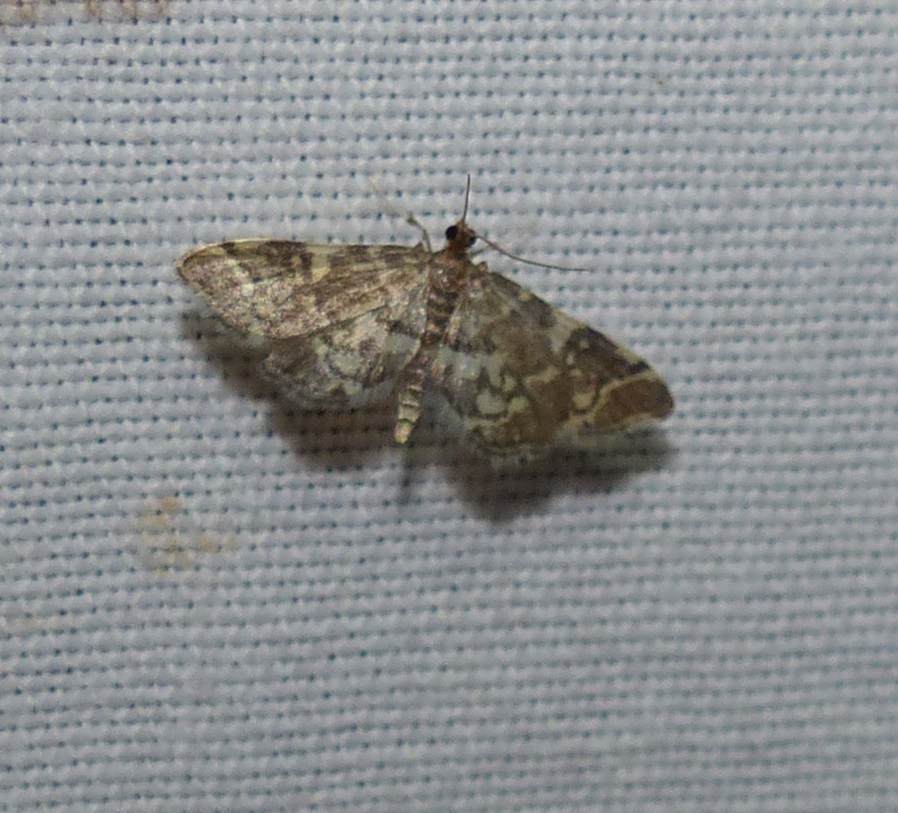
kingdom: Animalia
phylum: Arthropoda
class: Insecta
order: Lepidoptera
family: Crambidae
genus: Anageshna
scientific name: Anageshna primordialis
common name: Yellow-spotted webworm moth
